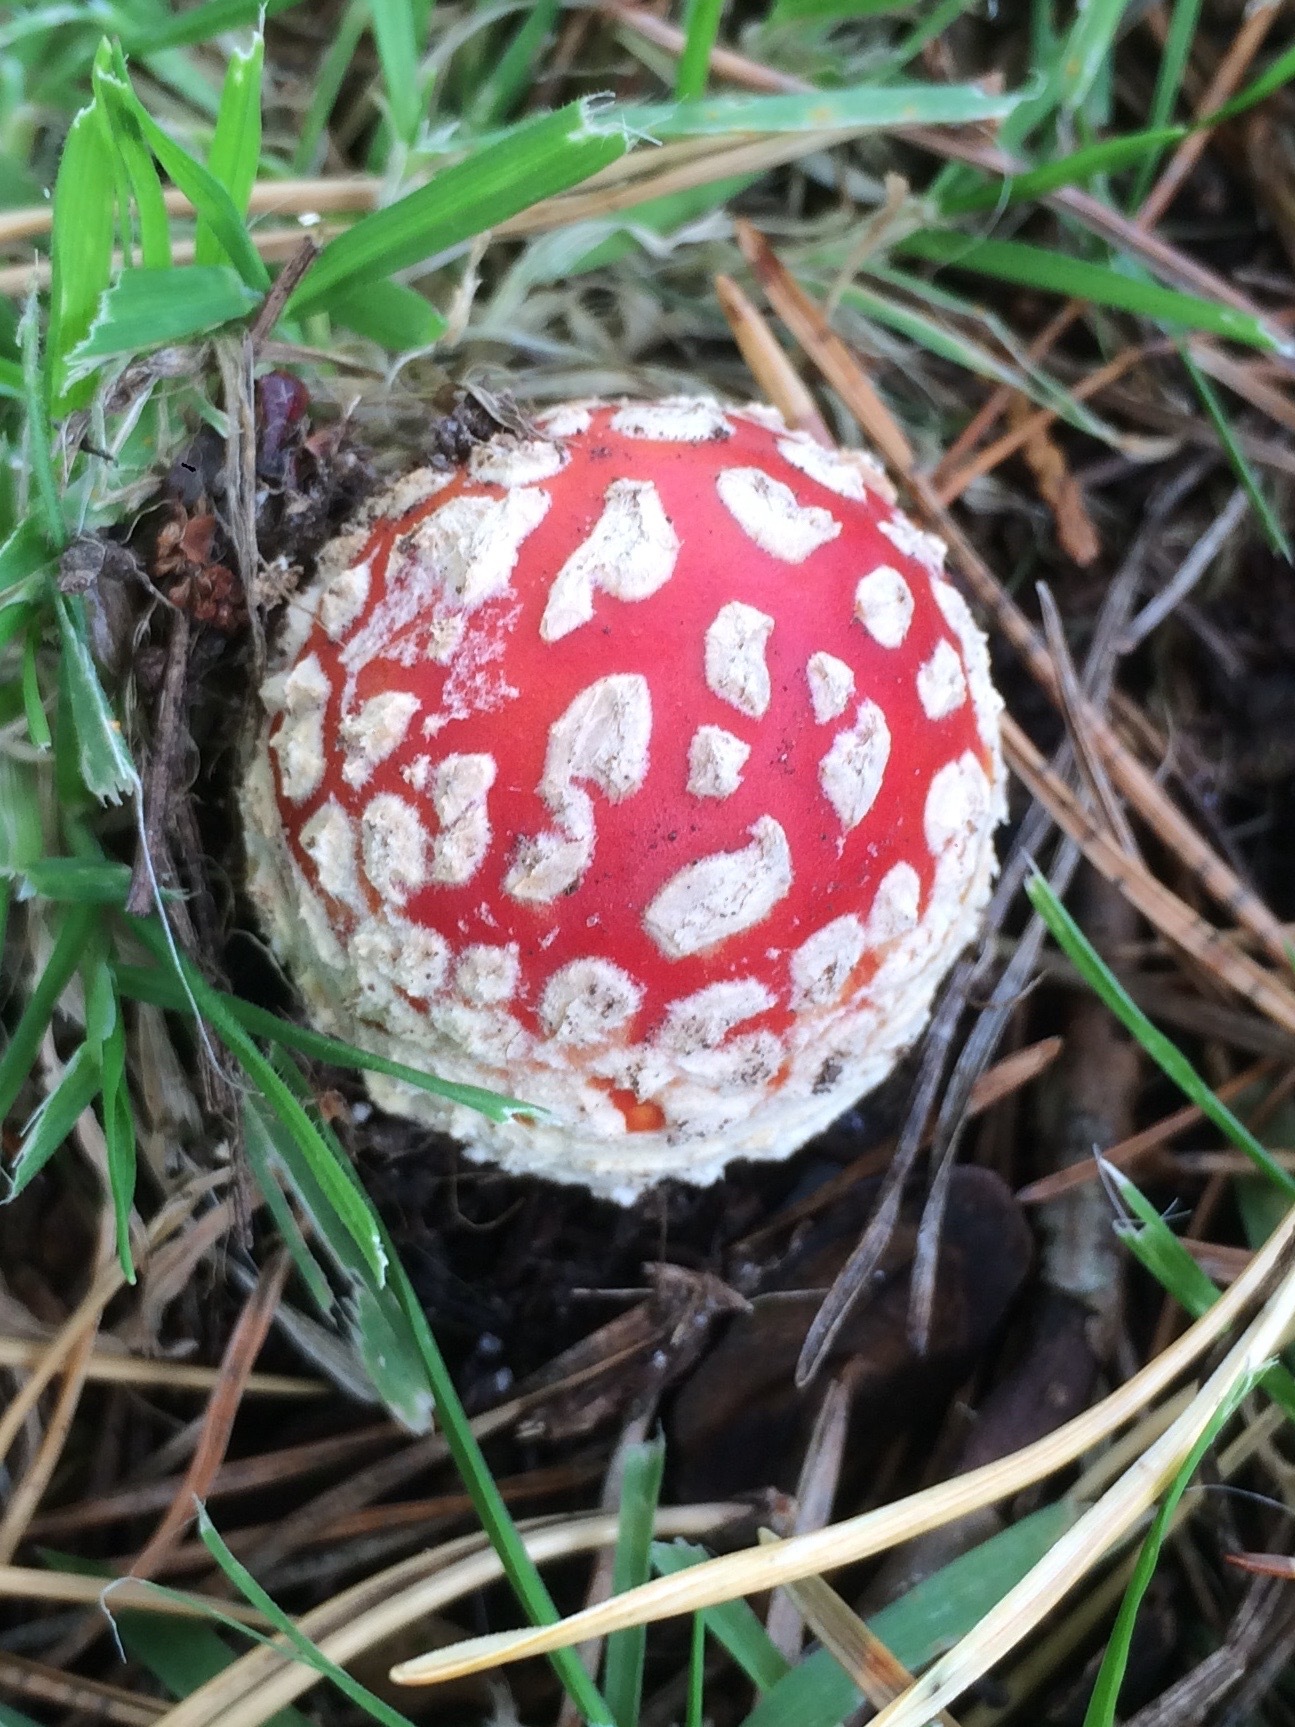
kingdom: Fungi
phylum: Basidiomycota
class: Agaricomycetes
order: Agaricales
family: Amanitaceae
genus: Amanita
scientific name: Amanita muscaria
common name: Fly agaric
